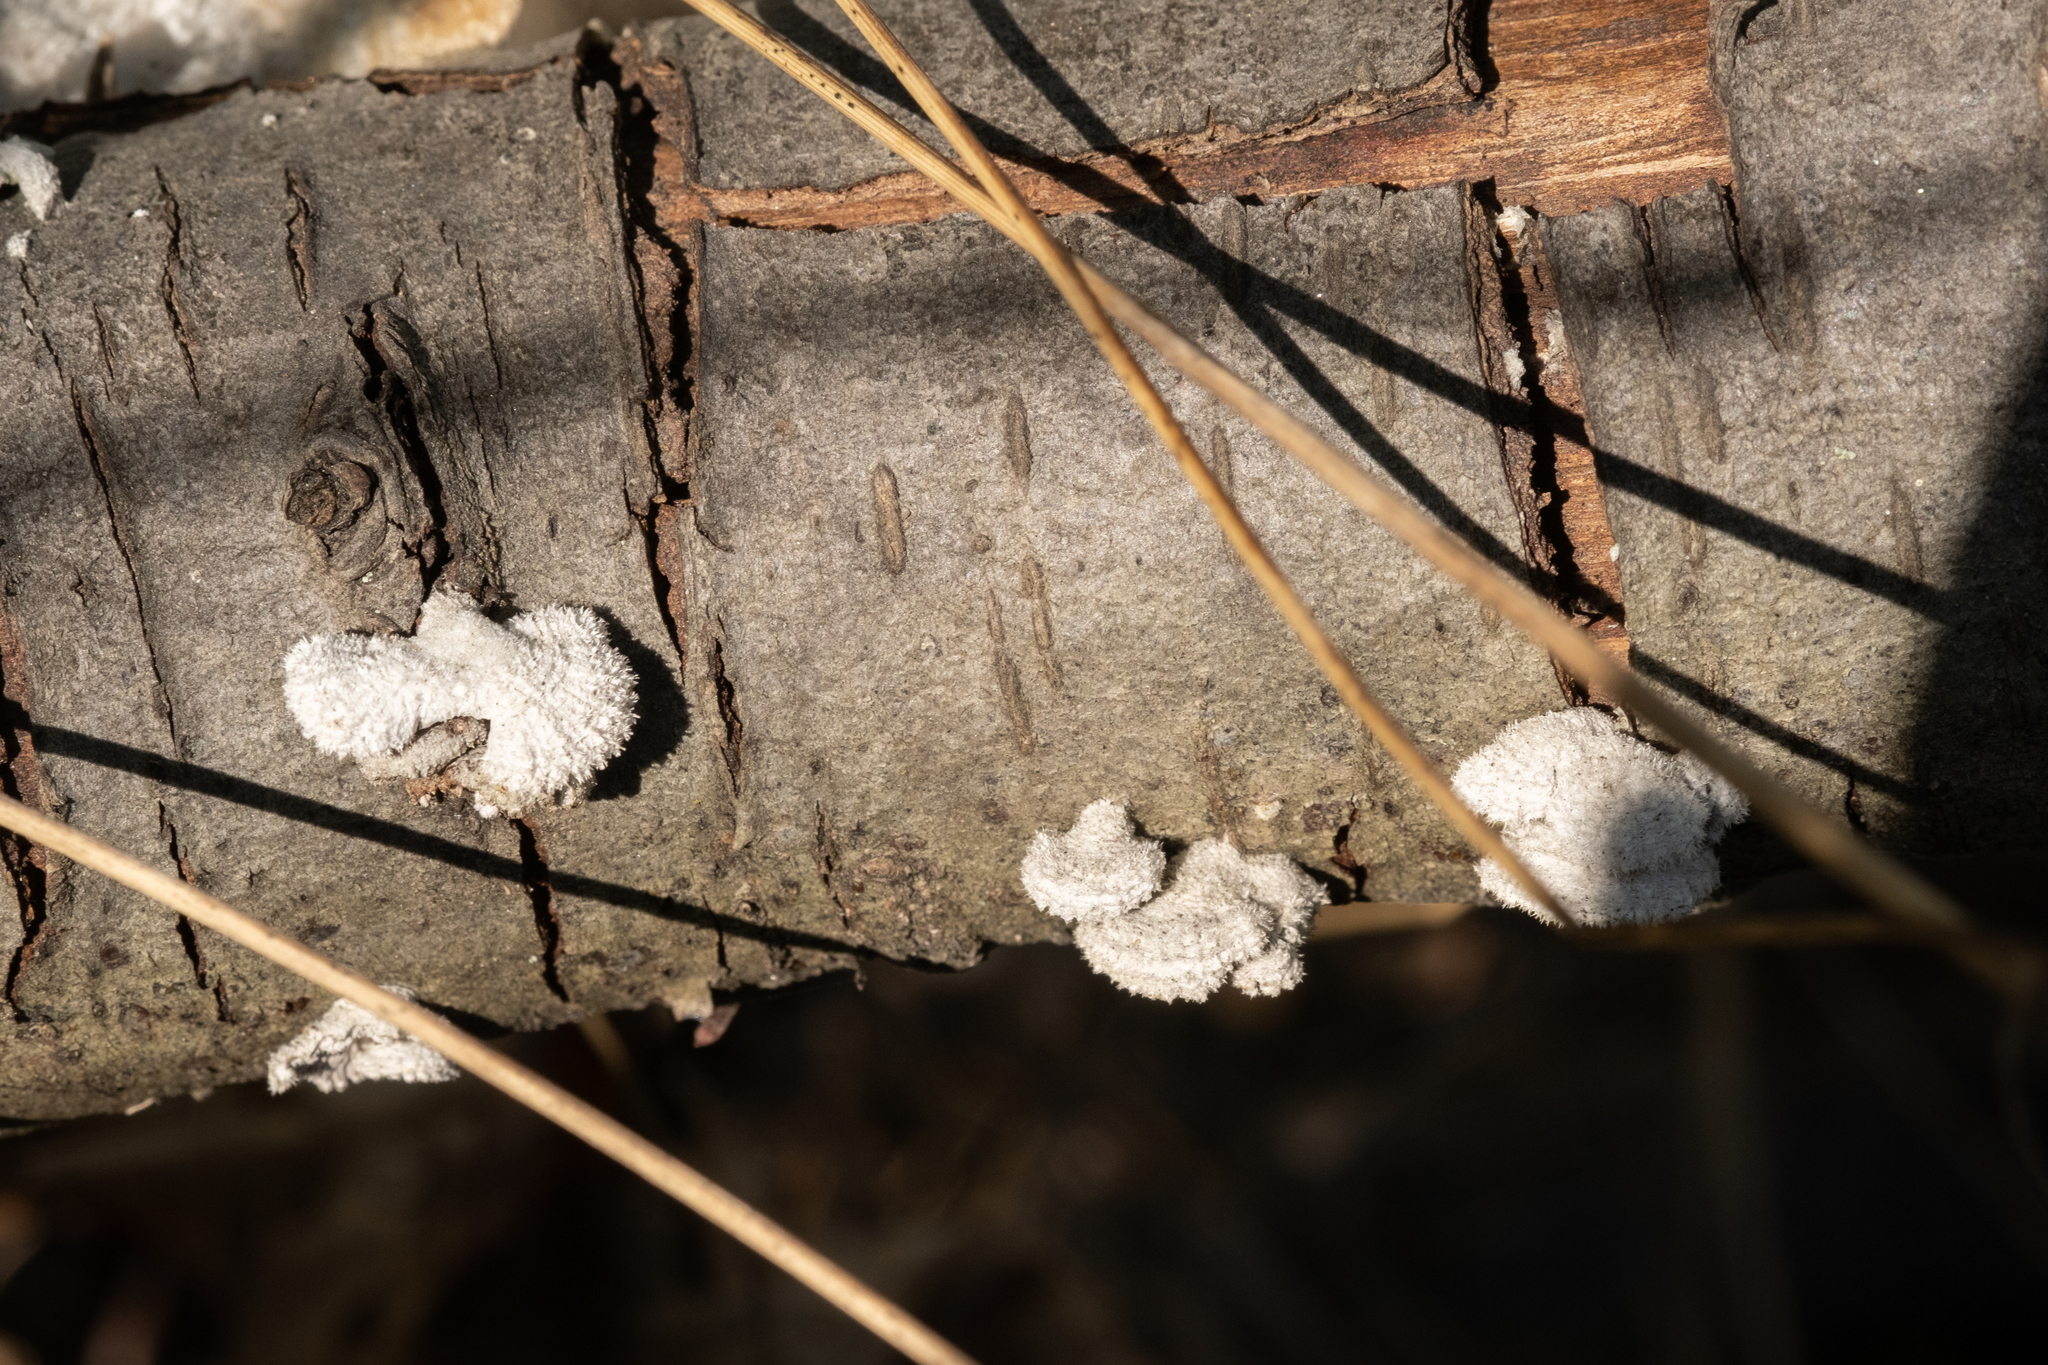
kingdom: Fungi
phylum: Basidiomycota
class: Agaricomycetes
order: Agaricales
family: Schizophyllaceae
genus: Schizophyllum
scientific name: Schizophyllum commune
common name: Common porecrust
